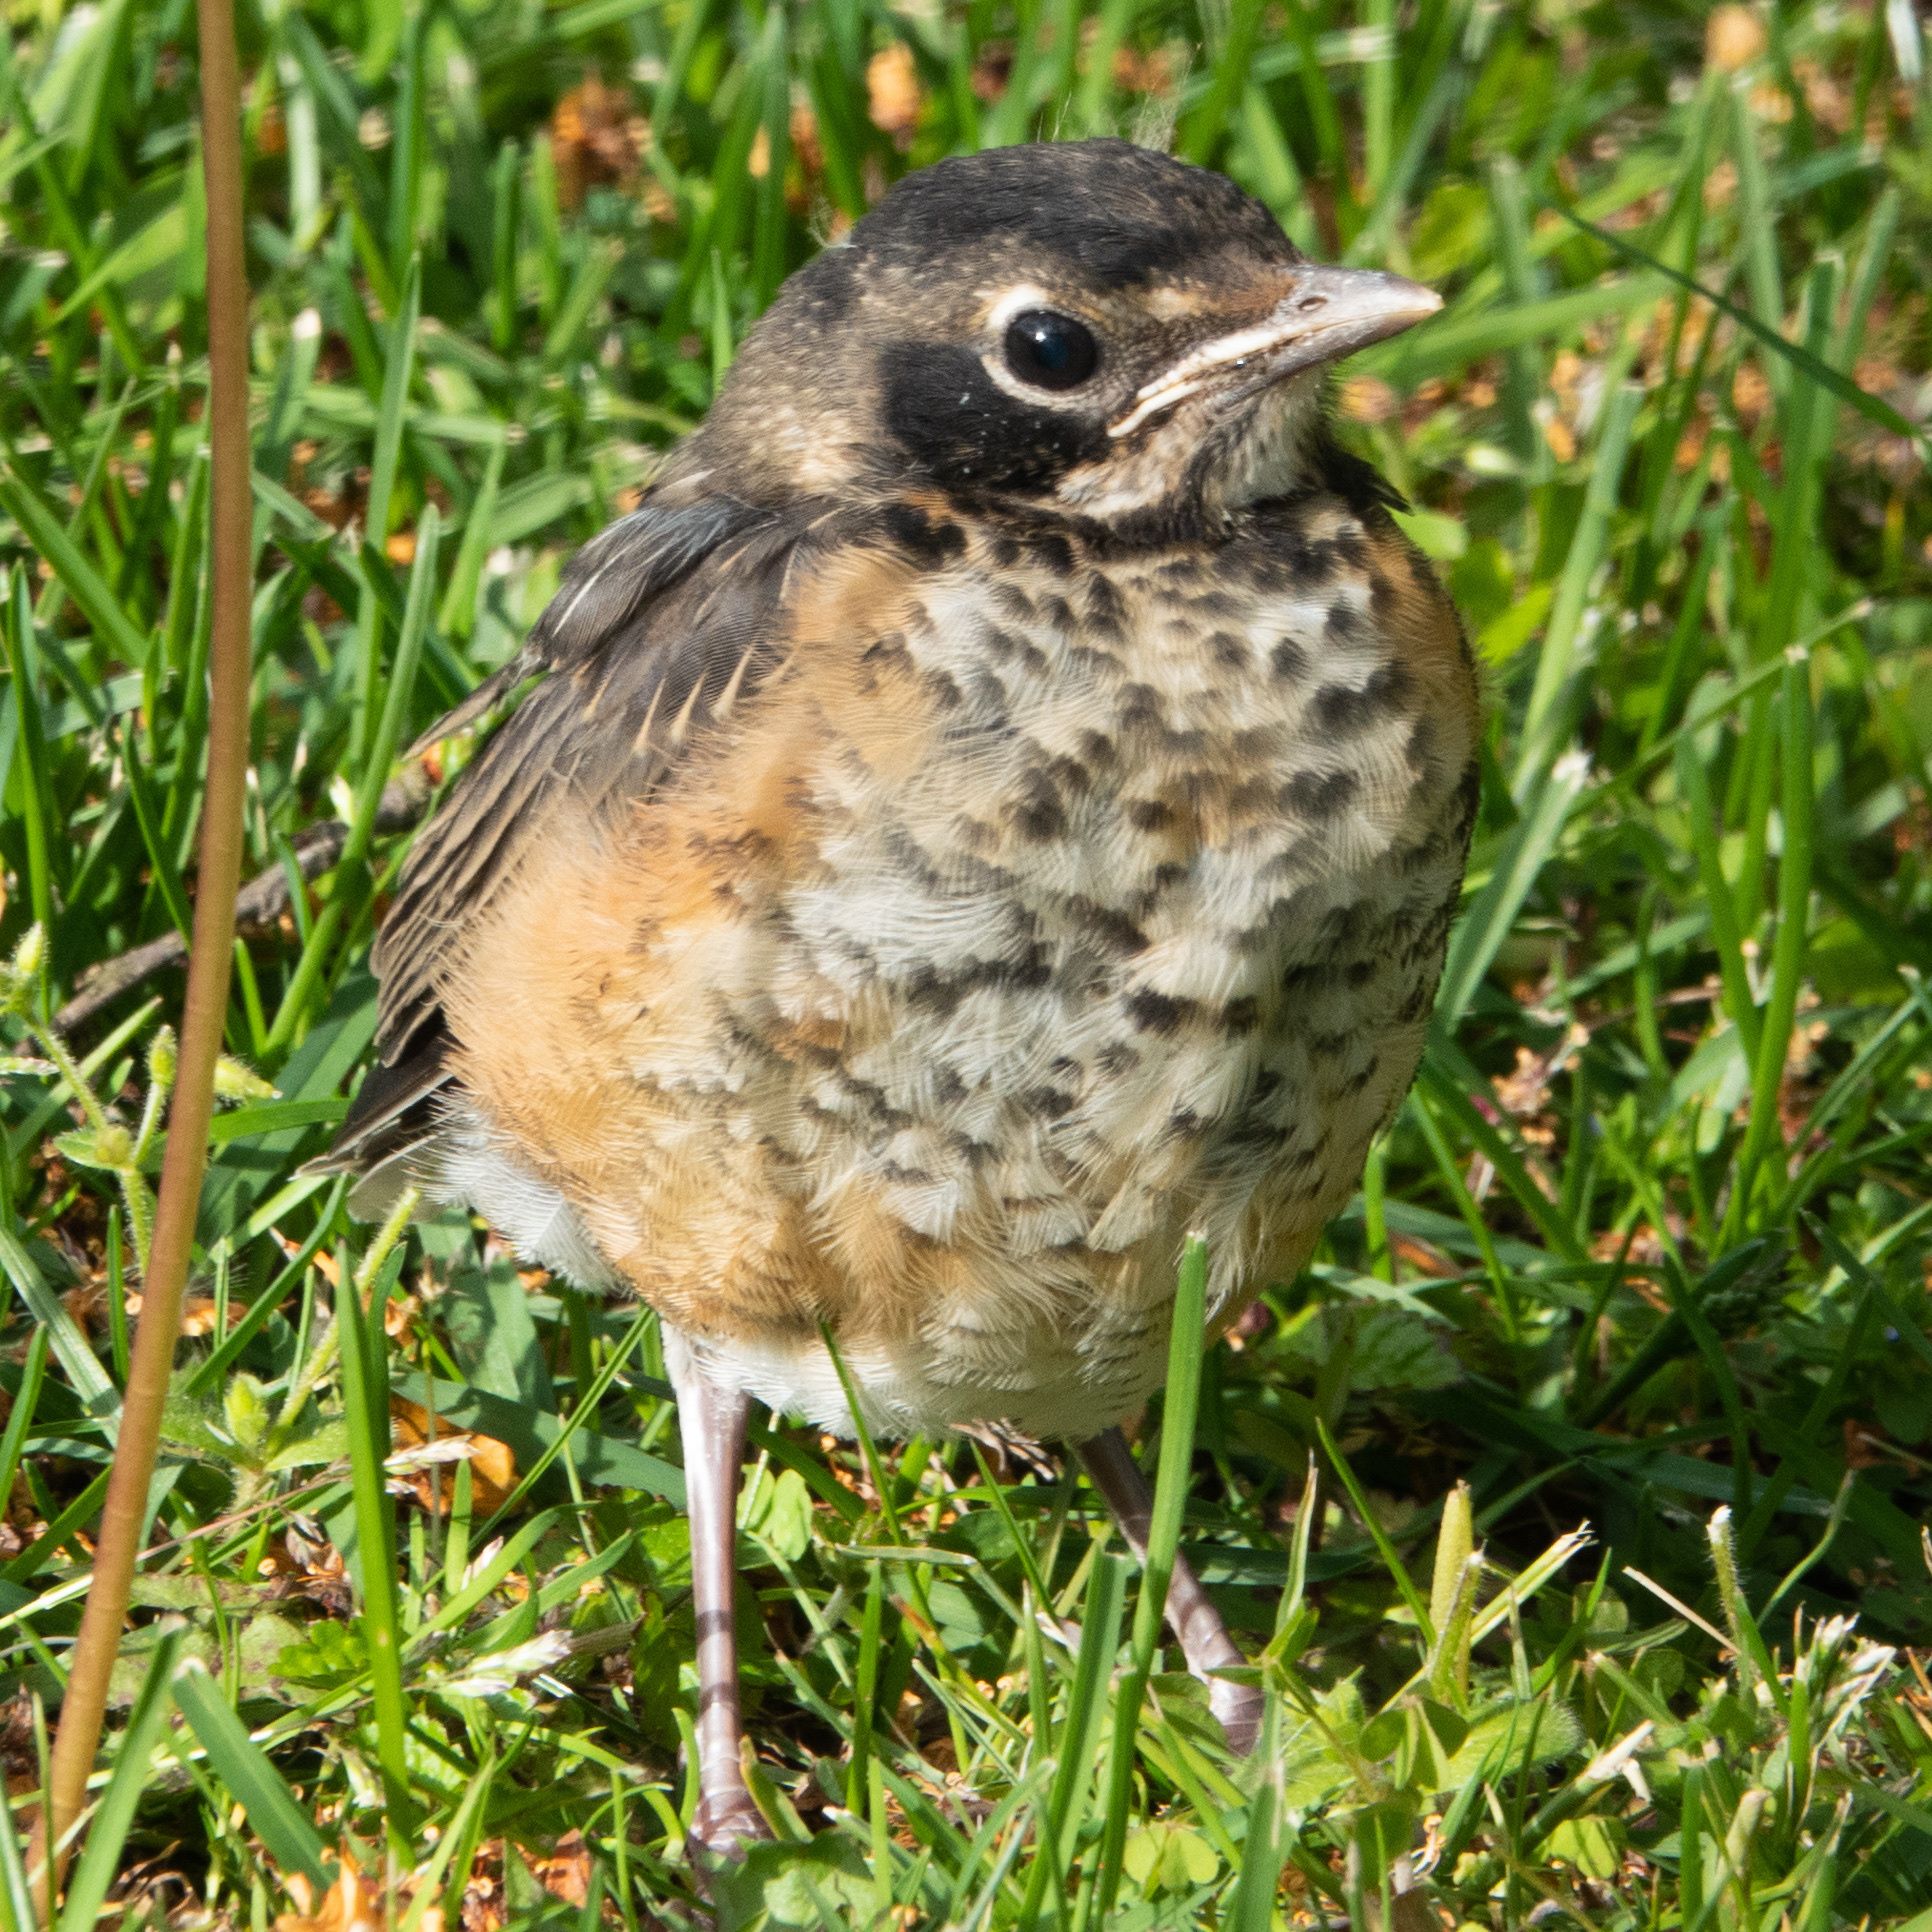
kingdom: Animalia
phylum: Chordata
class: Aves
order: Passeriformes
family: Turdidae
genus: Turdus
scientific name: Turdus migratorius
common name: American robin
